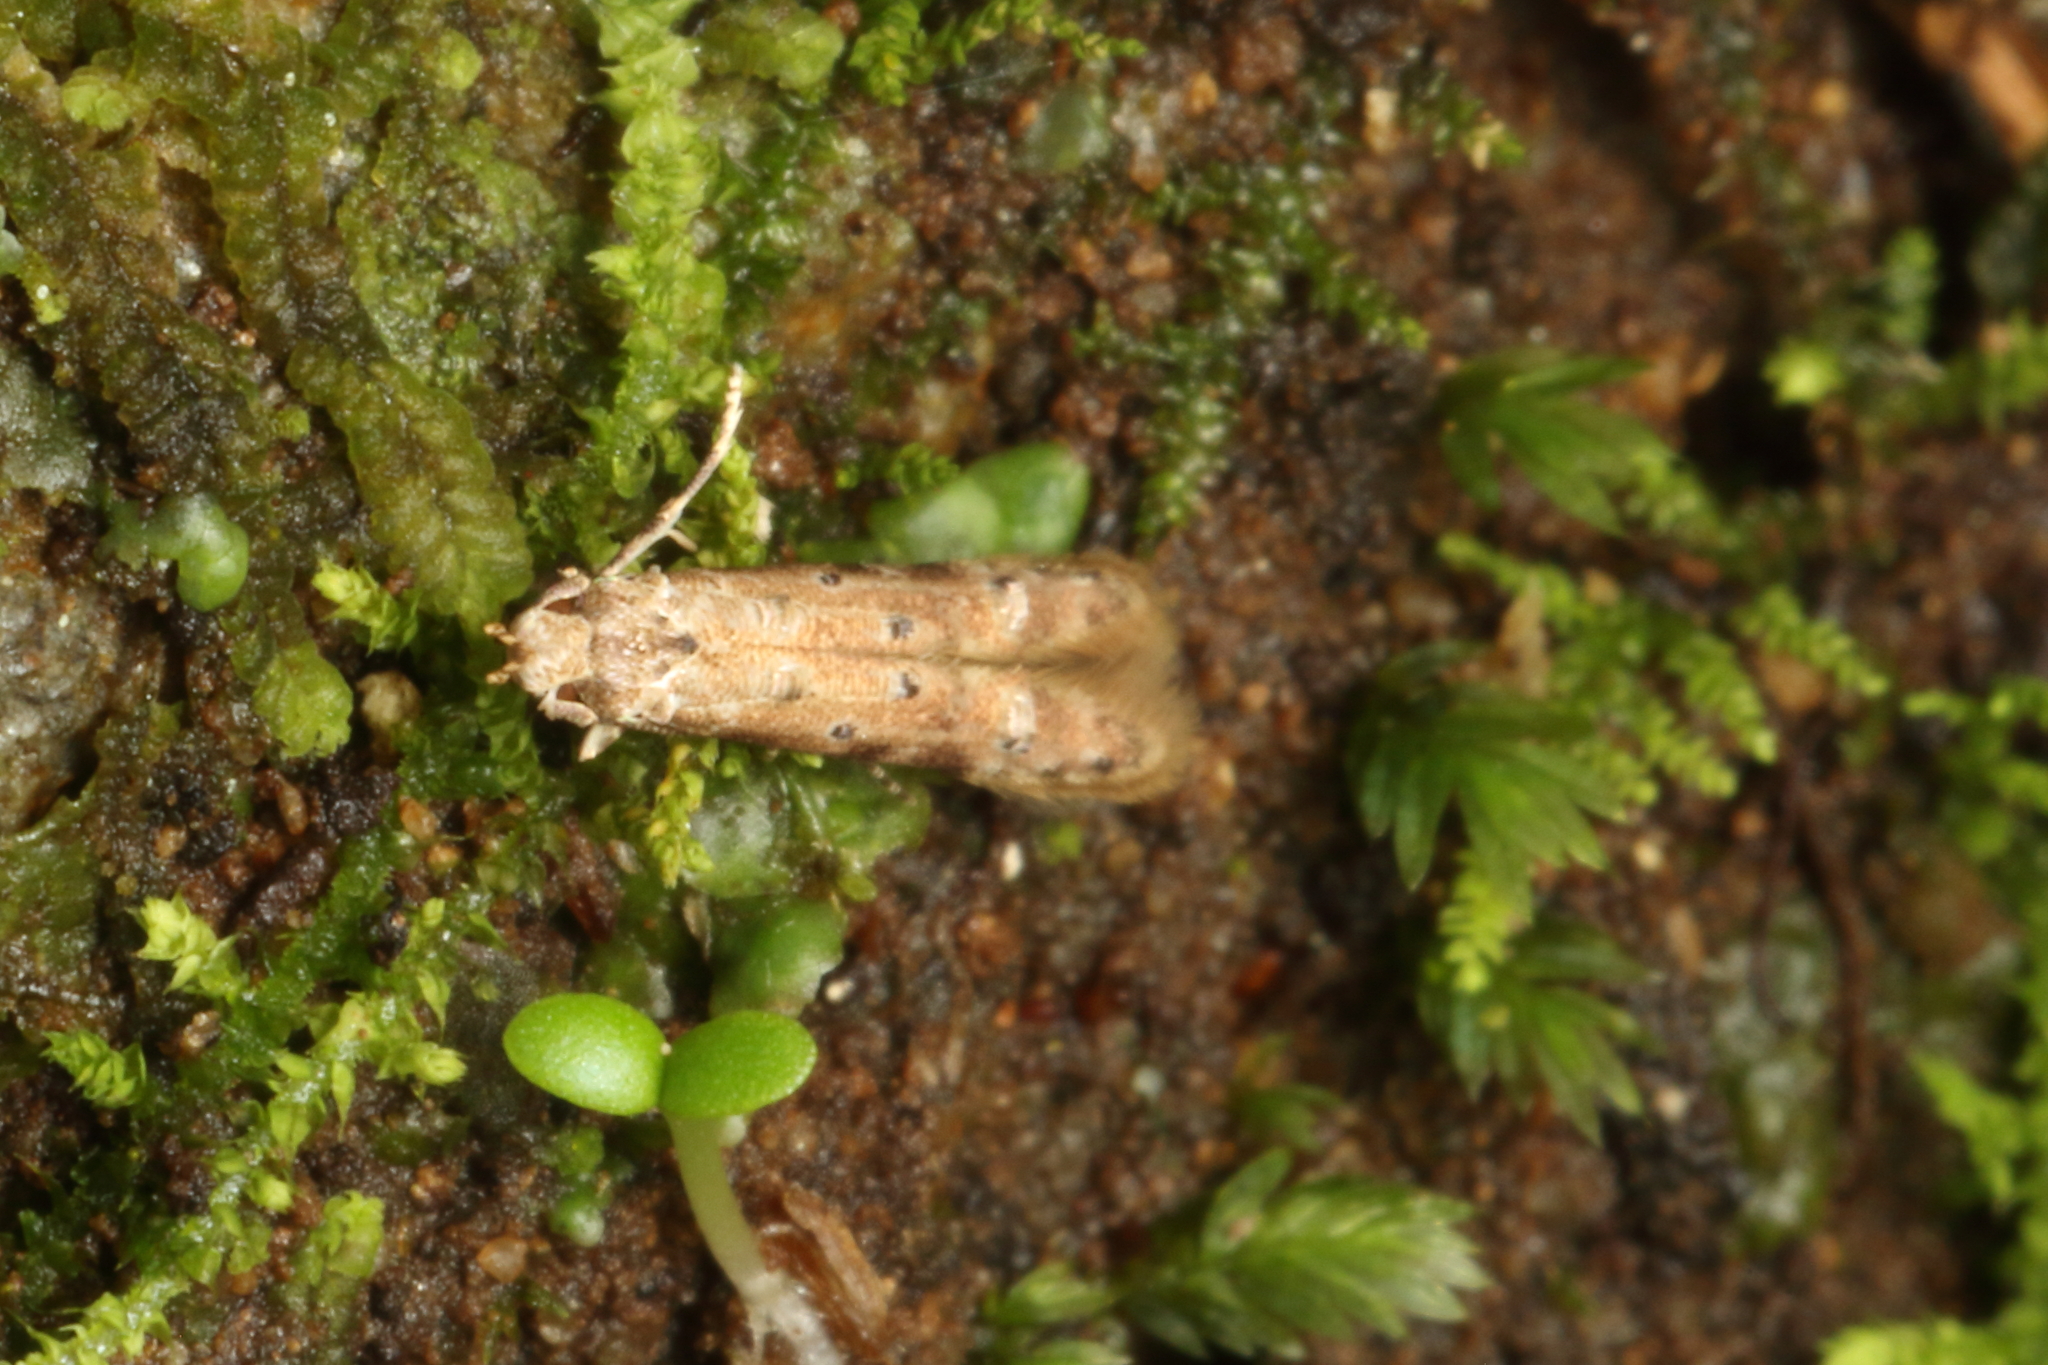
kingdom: Animalia
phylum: Arthropoda
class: Insecta
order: Lepidoptera
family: Elachistidae
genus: Microcolona
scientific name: Microcolona limodes
